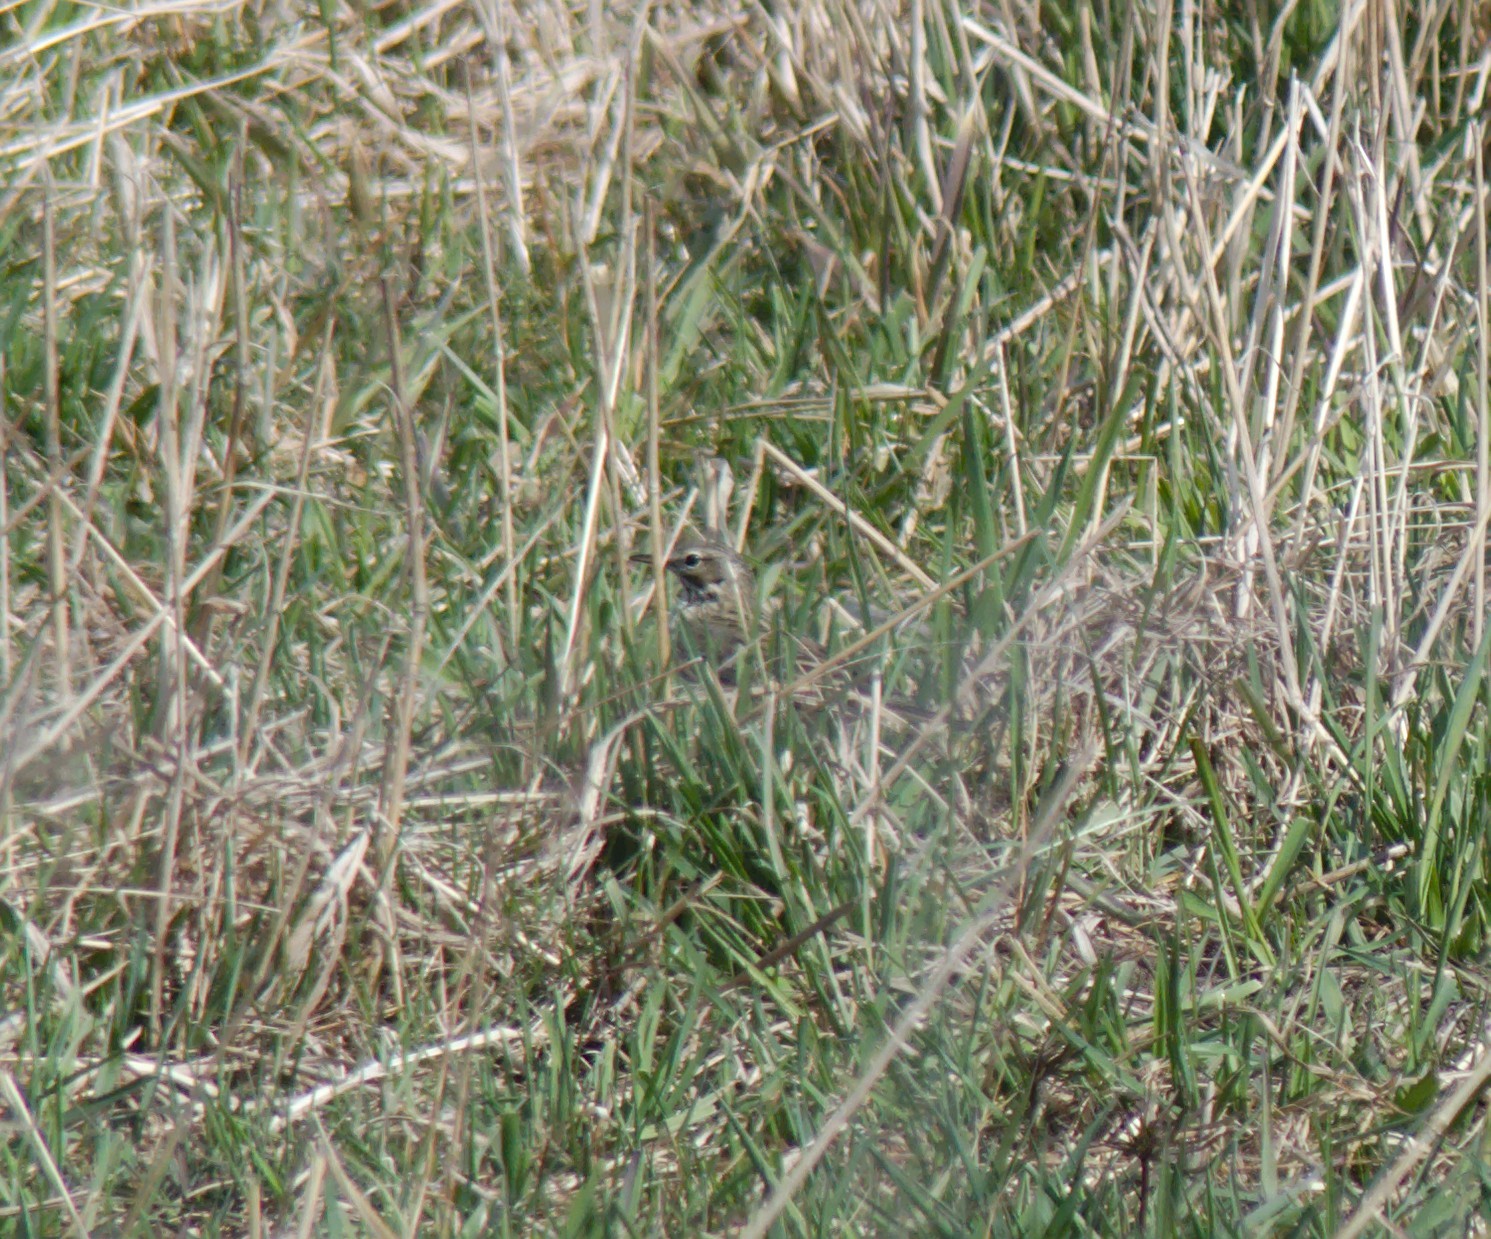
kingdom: Animalia
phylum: Chordata
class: Aves
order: Passeriformes
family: Motacillidae
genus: Anthus
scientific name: Anthus pratensis
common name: Meadow pipit
